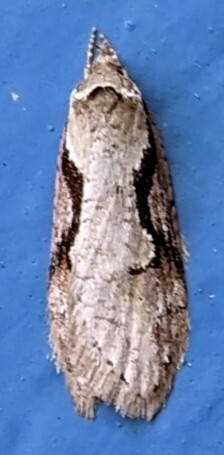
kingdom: Animalia
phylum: Arthropoda
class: Insecta
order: Lepidoptera
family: Depressariidae
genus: Semioscopis
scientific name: Semioscopis packardella
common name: Packard's concealer moth
